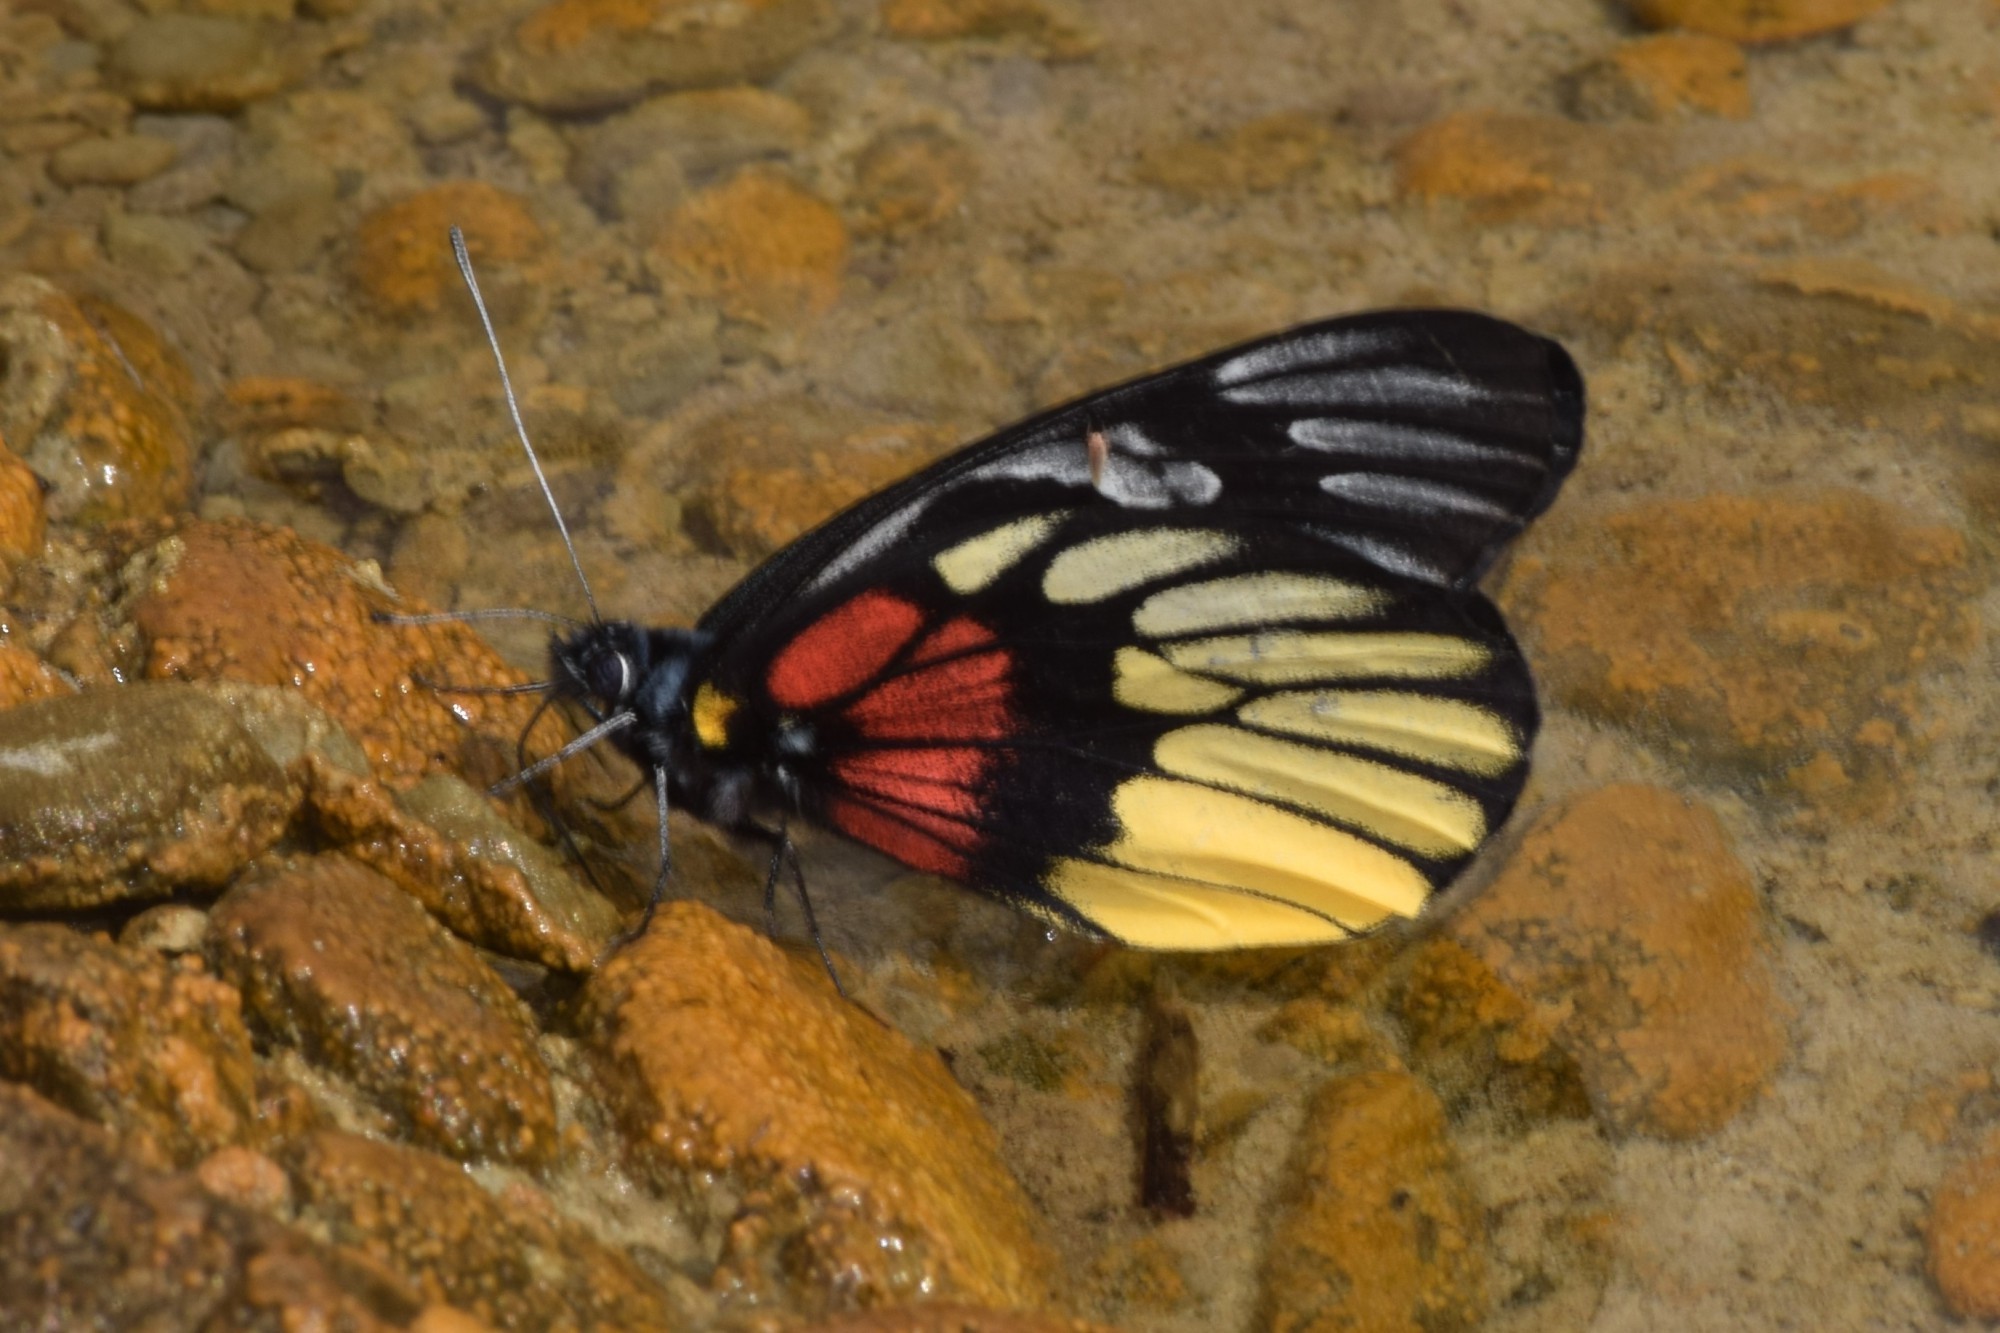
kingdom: Animalia
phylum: Arthropoda
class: Insecta
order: Lepidoptera
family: Pieridae
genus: Delias
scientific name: Delias acalis
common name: Red-breast jezebel
